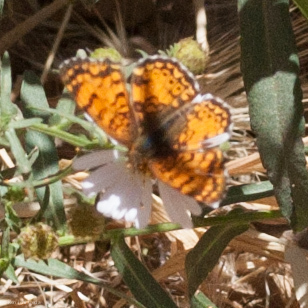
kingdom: Animalia
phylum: Arthropoda
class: Insecta
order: Lepidoptera
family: Nymphalidae
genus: Eresia
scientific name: Eresia aveyrona
